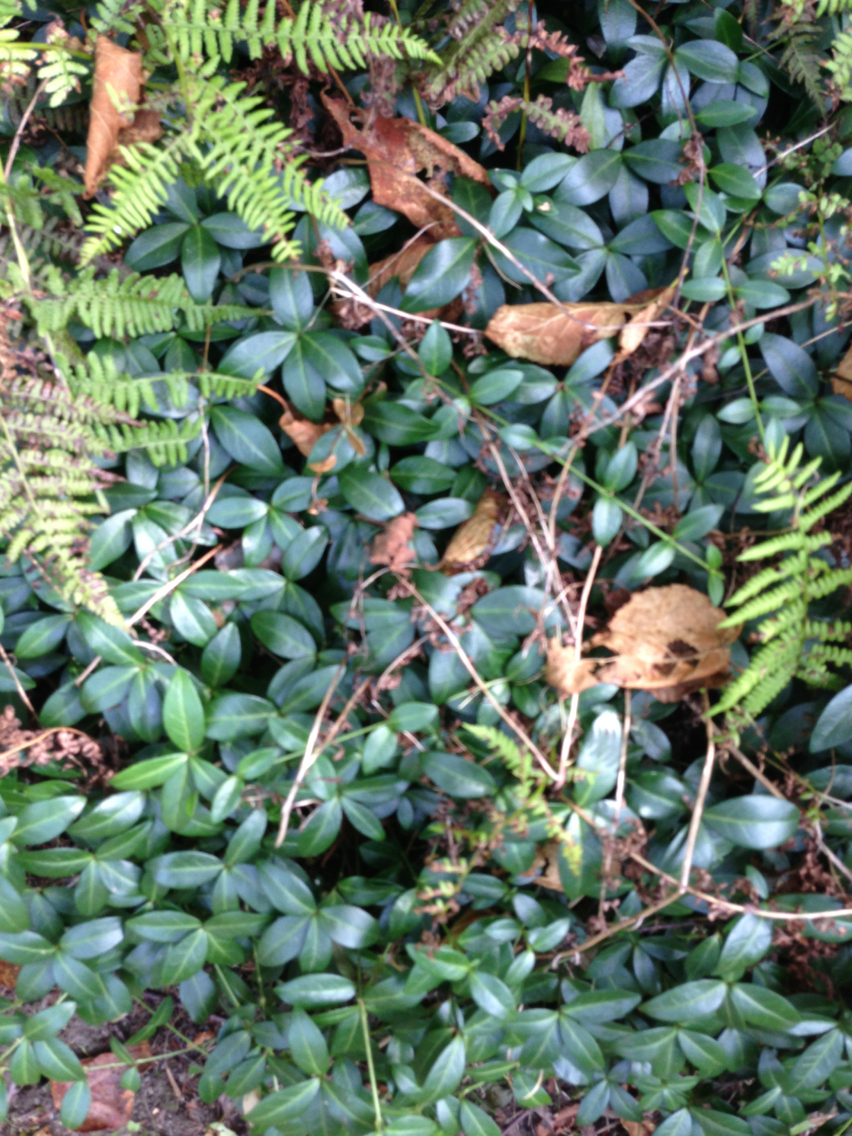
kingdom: Plantae
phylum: Tracheophyta
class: Magnoliopsida
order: Gentianales
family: Apocynaceae
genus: Vinca
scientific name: Vinca minor
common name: Lesser periwinkle
